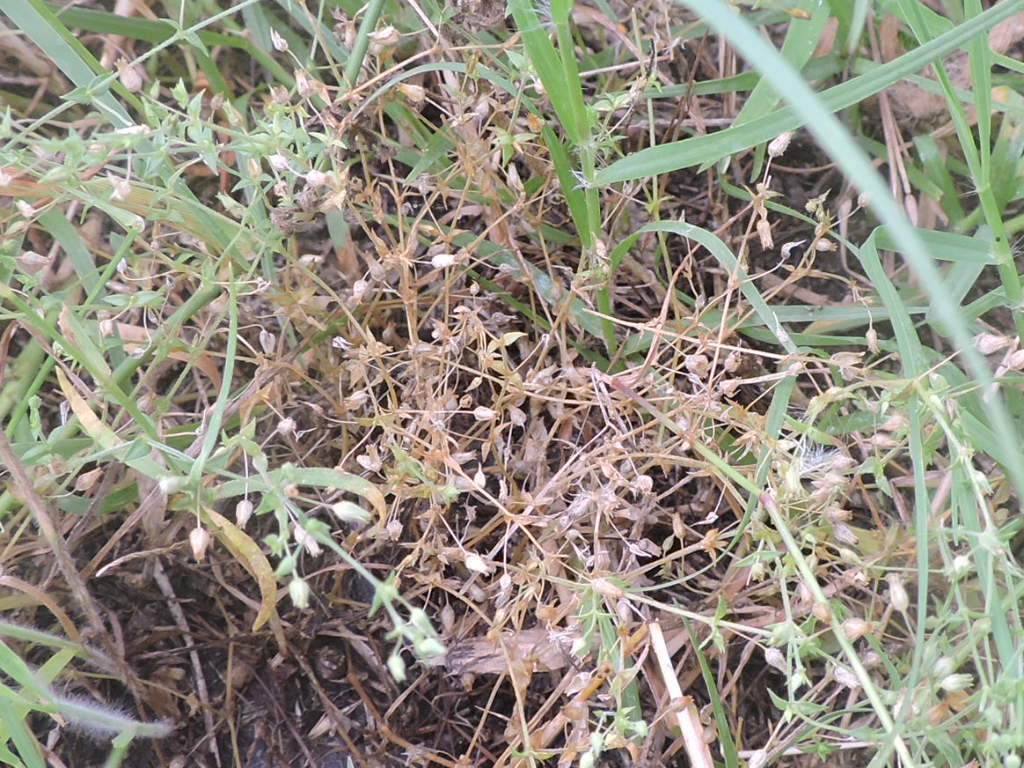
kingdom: Plantae
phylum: Tracheophyta
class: Magnoliopsida
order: Caryophyllales
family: Caryophyllaceae
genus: Arenaria
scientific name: Arenaria serpyllifolia
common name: Thyme-leaved sandwort
